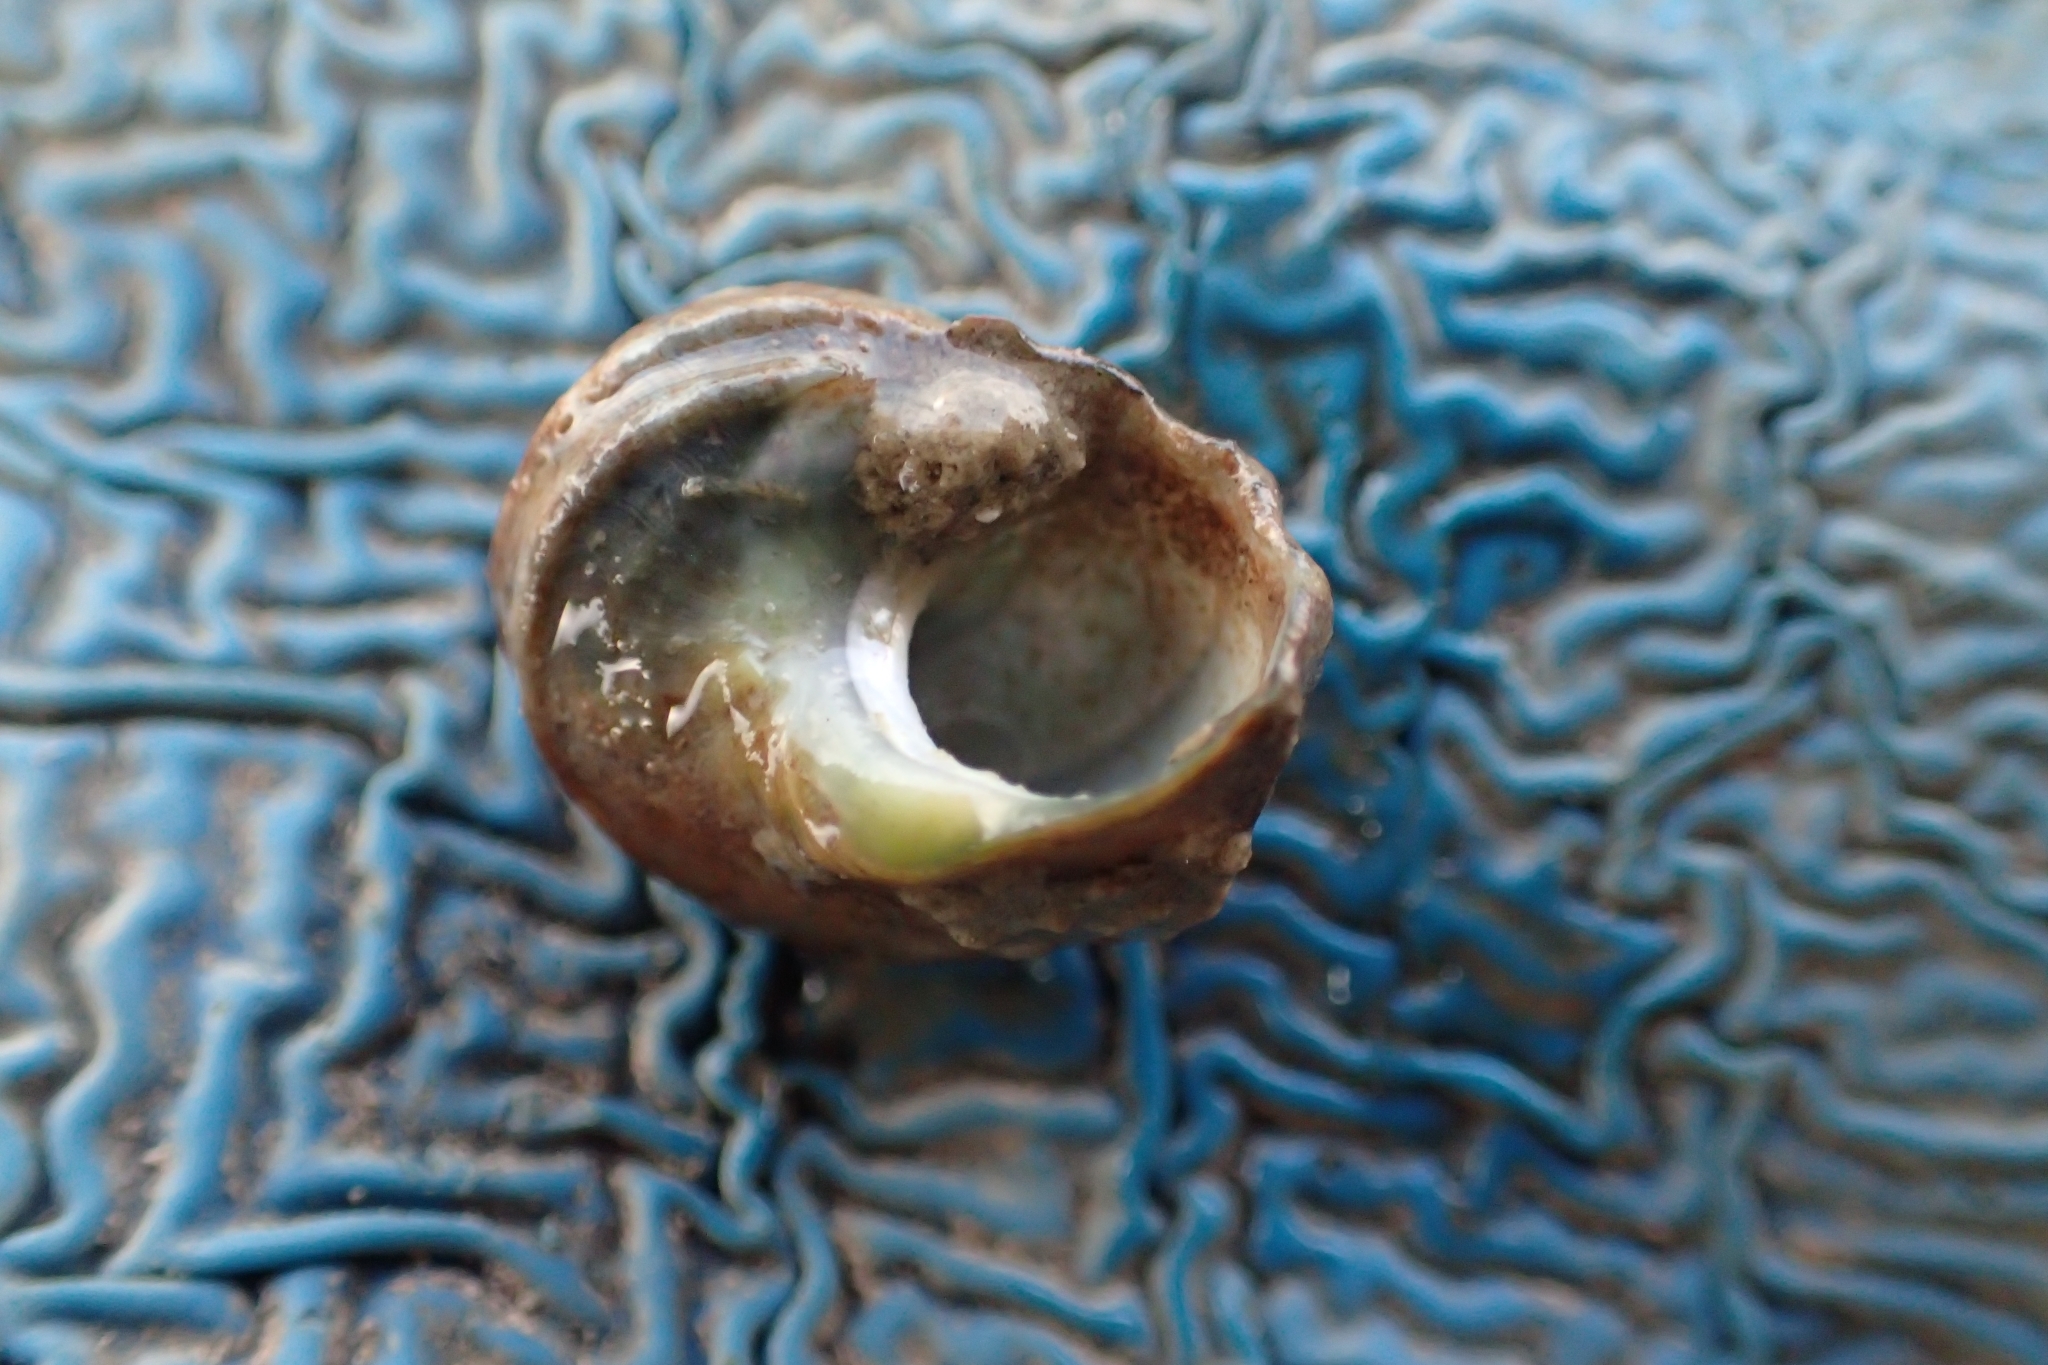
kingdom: Animalia
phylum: Mollusca
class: Gastropoda
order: Trochida
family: Turbinidae
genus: Lunella
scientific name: Lunella smaragda
